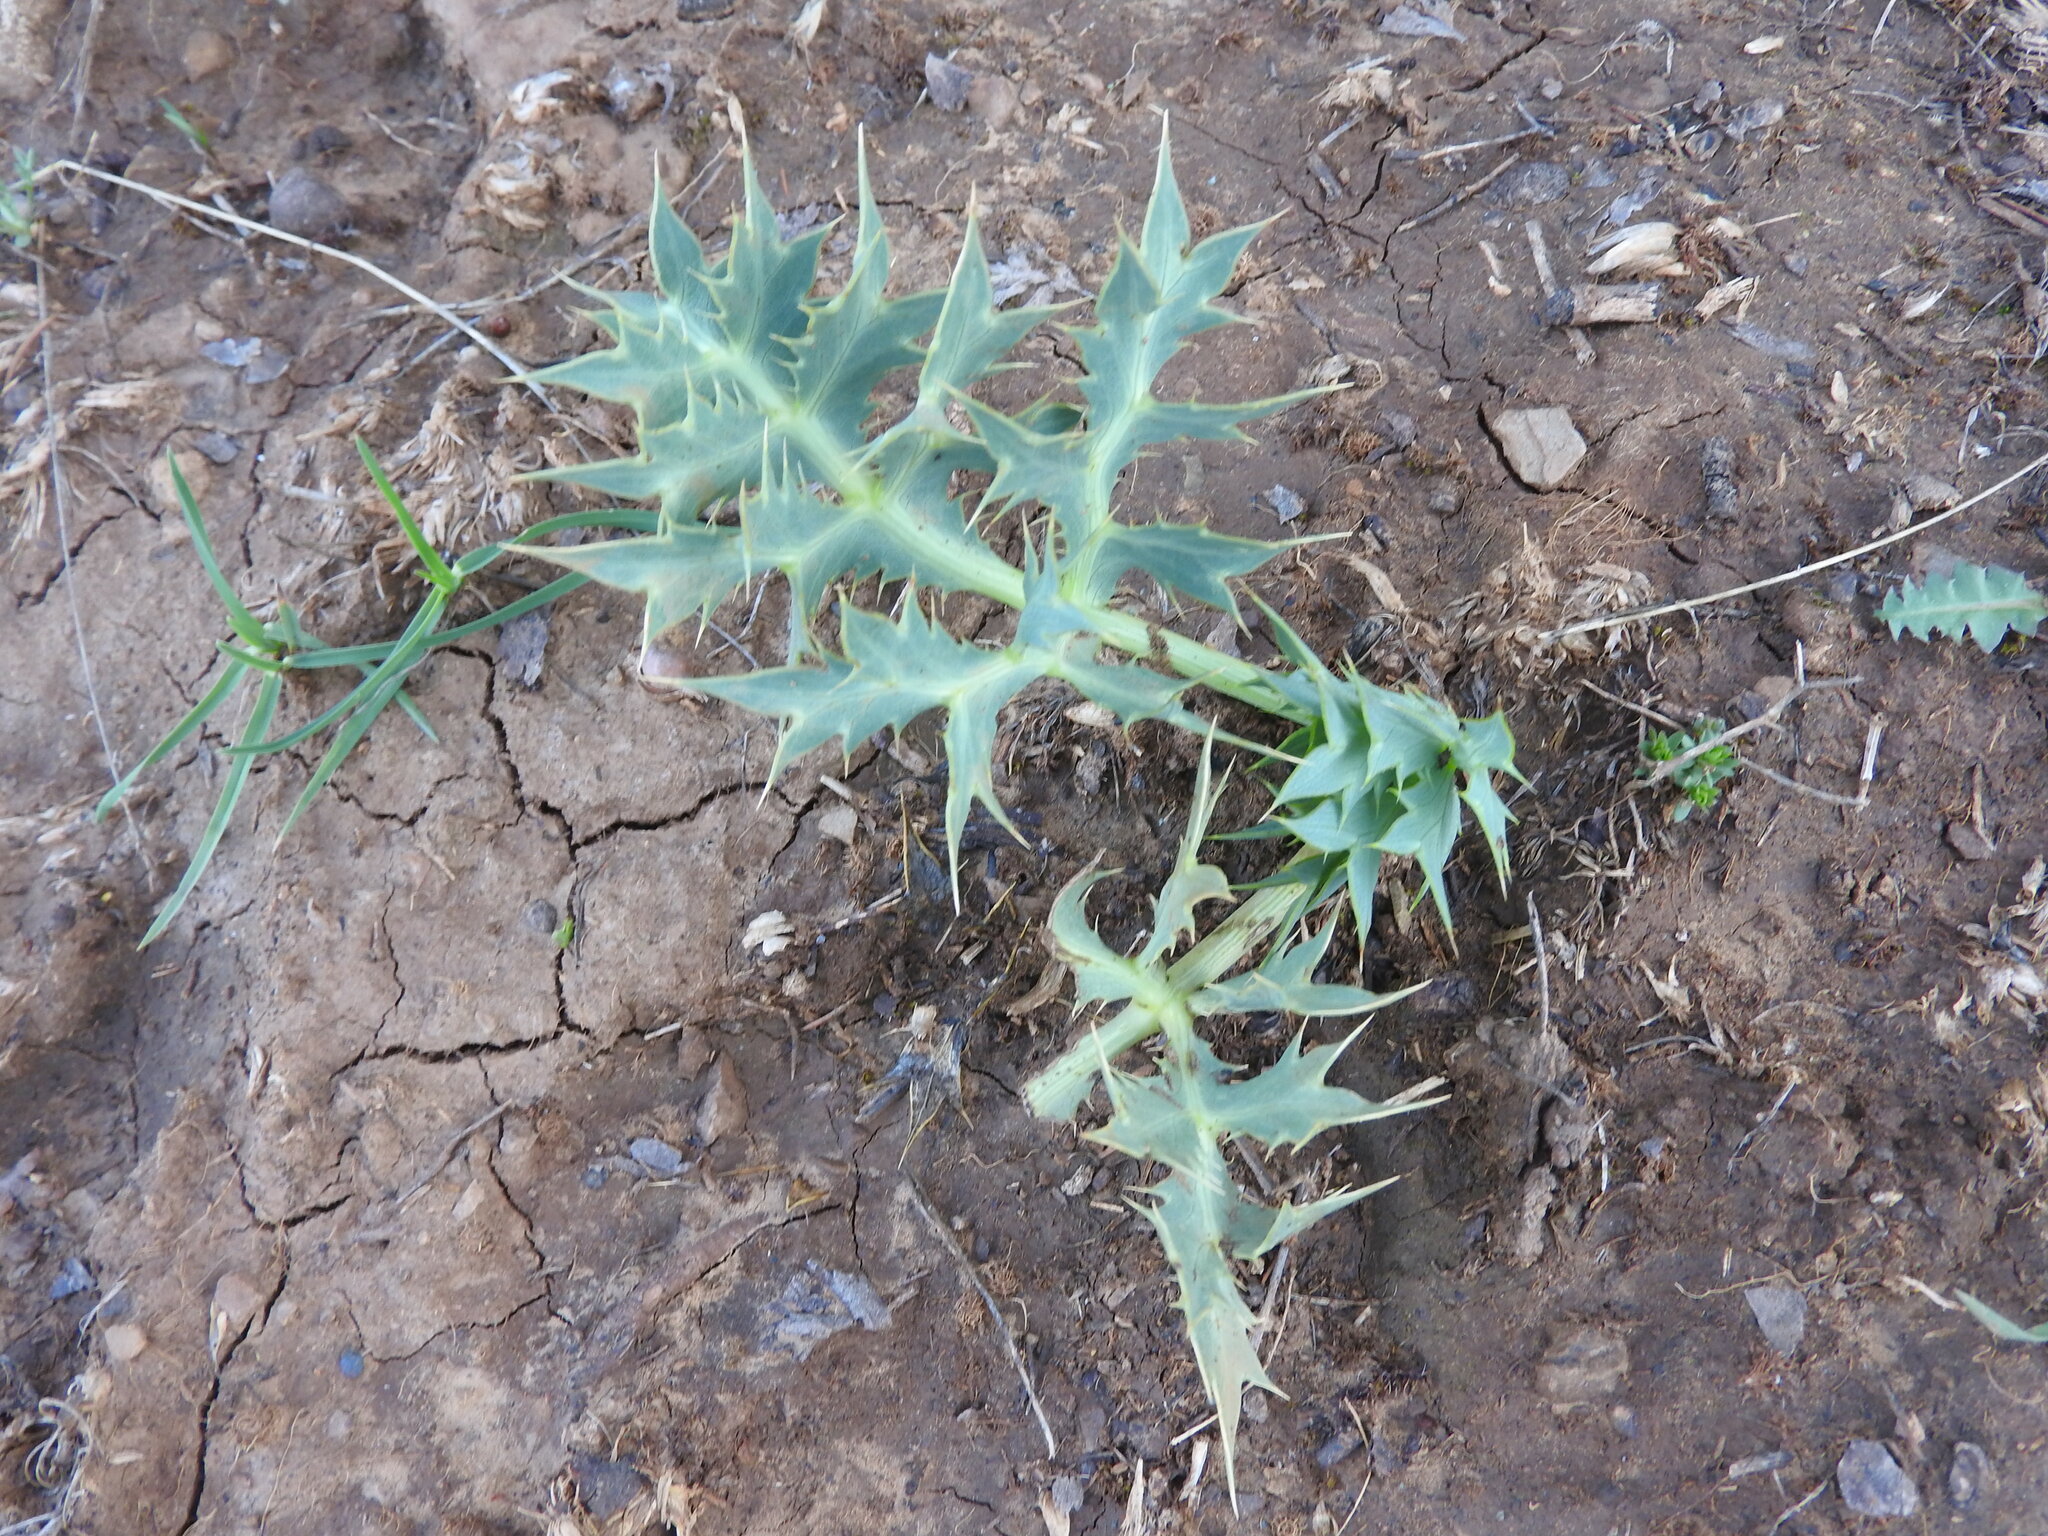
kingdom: Plantae
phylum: Tracheophyta
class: Magnoliopsida
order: Apiales
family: Apiaceae
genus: Eryngium
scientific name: Eryngium campestre
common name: Field eryngo
